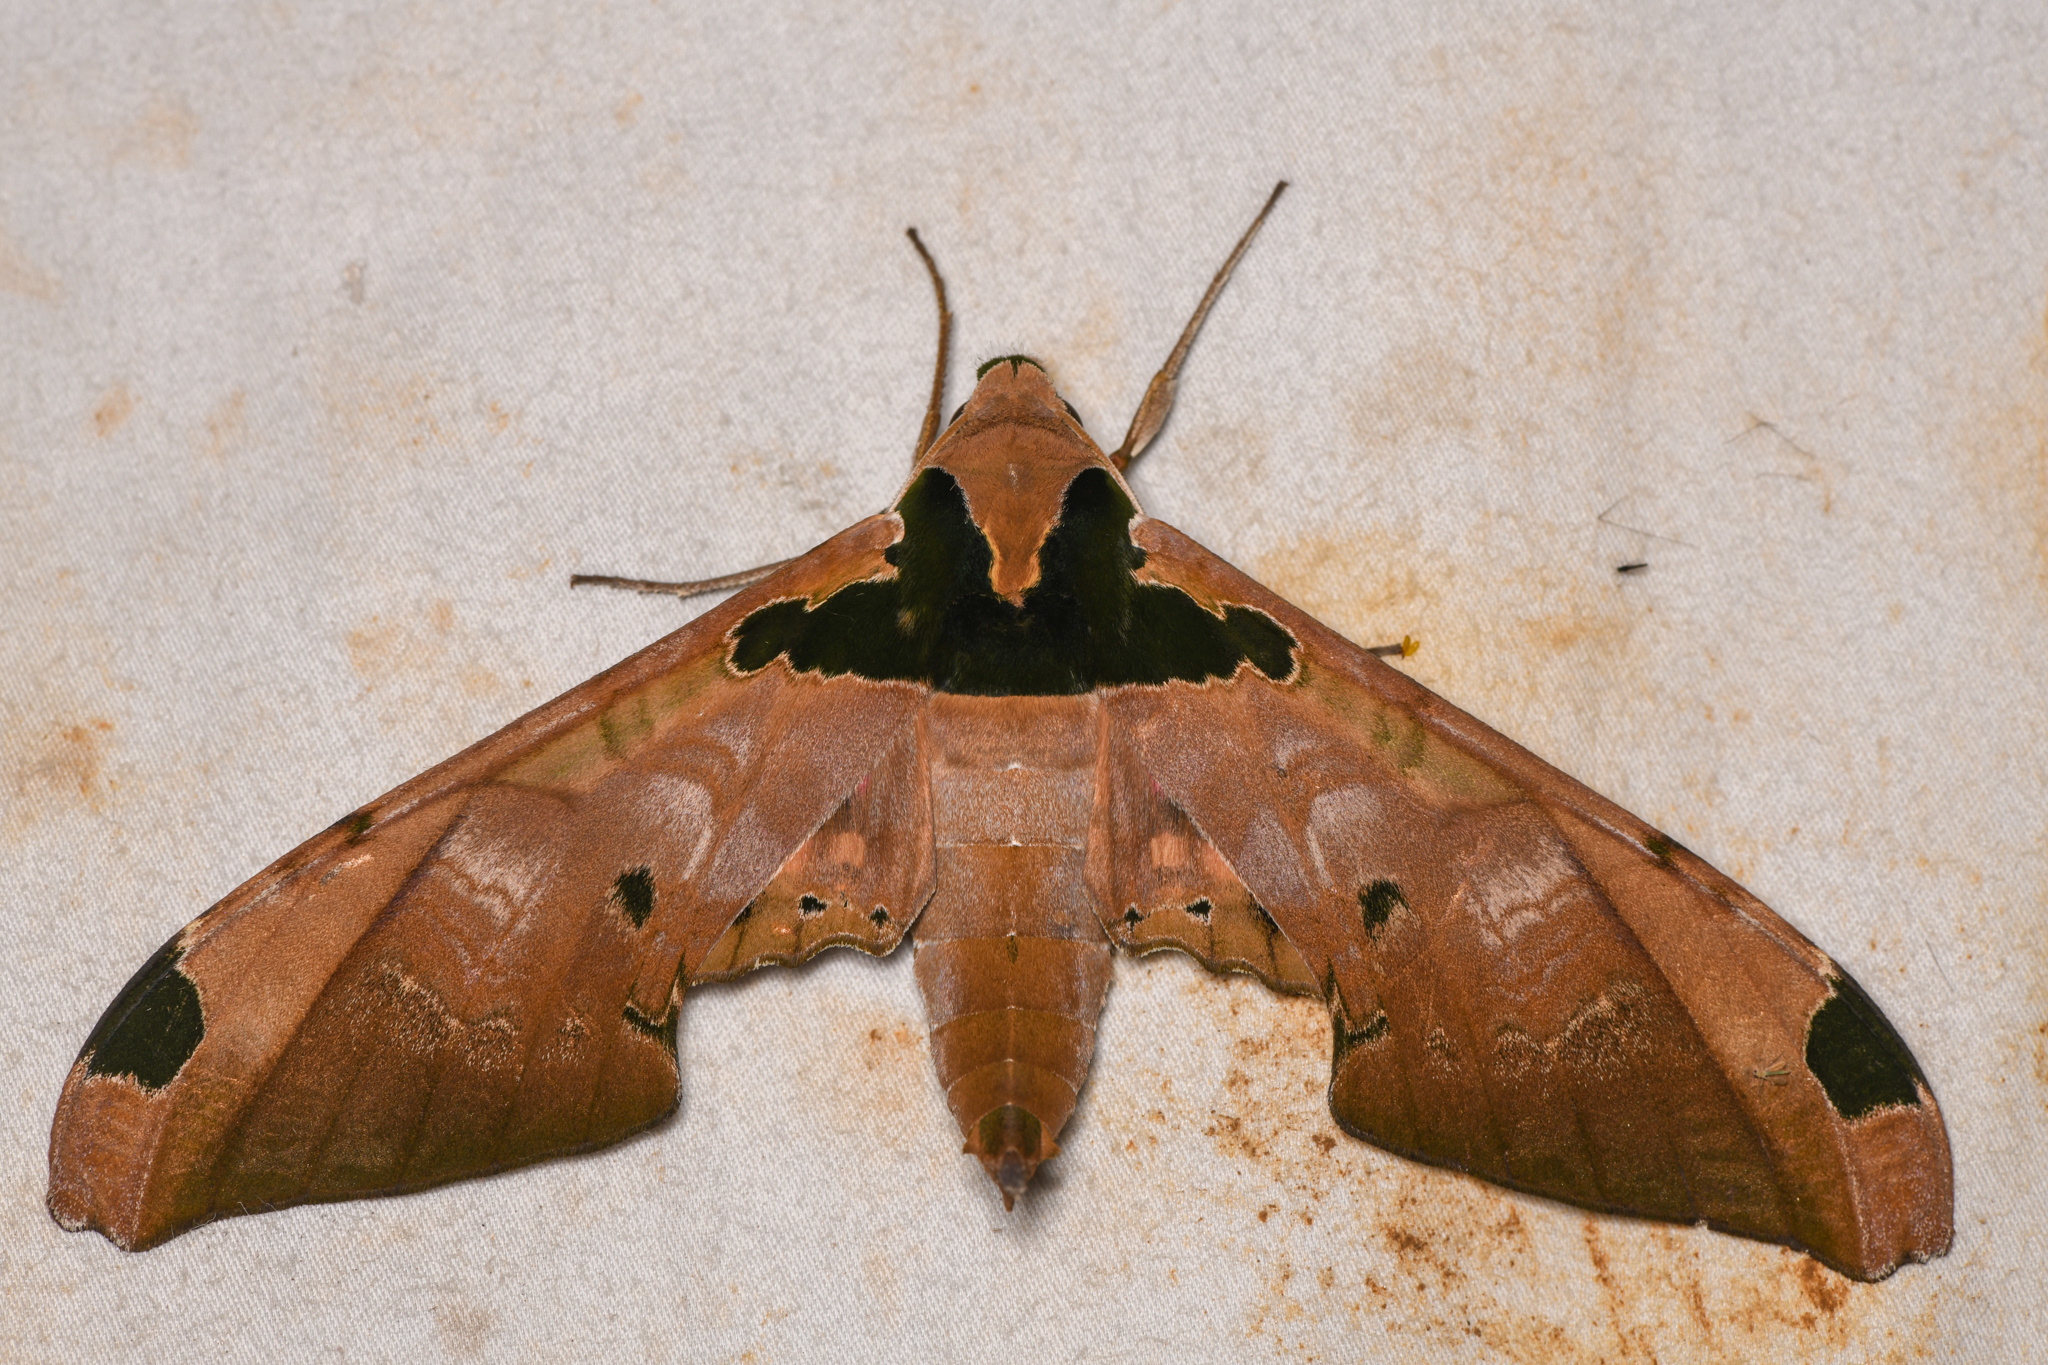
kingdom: Animalia
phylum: Arthropoda
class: Insecta
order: Lepidoptera
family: Sphingidae
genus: Adhemarius
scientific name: Adhemarius ypsilon
